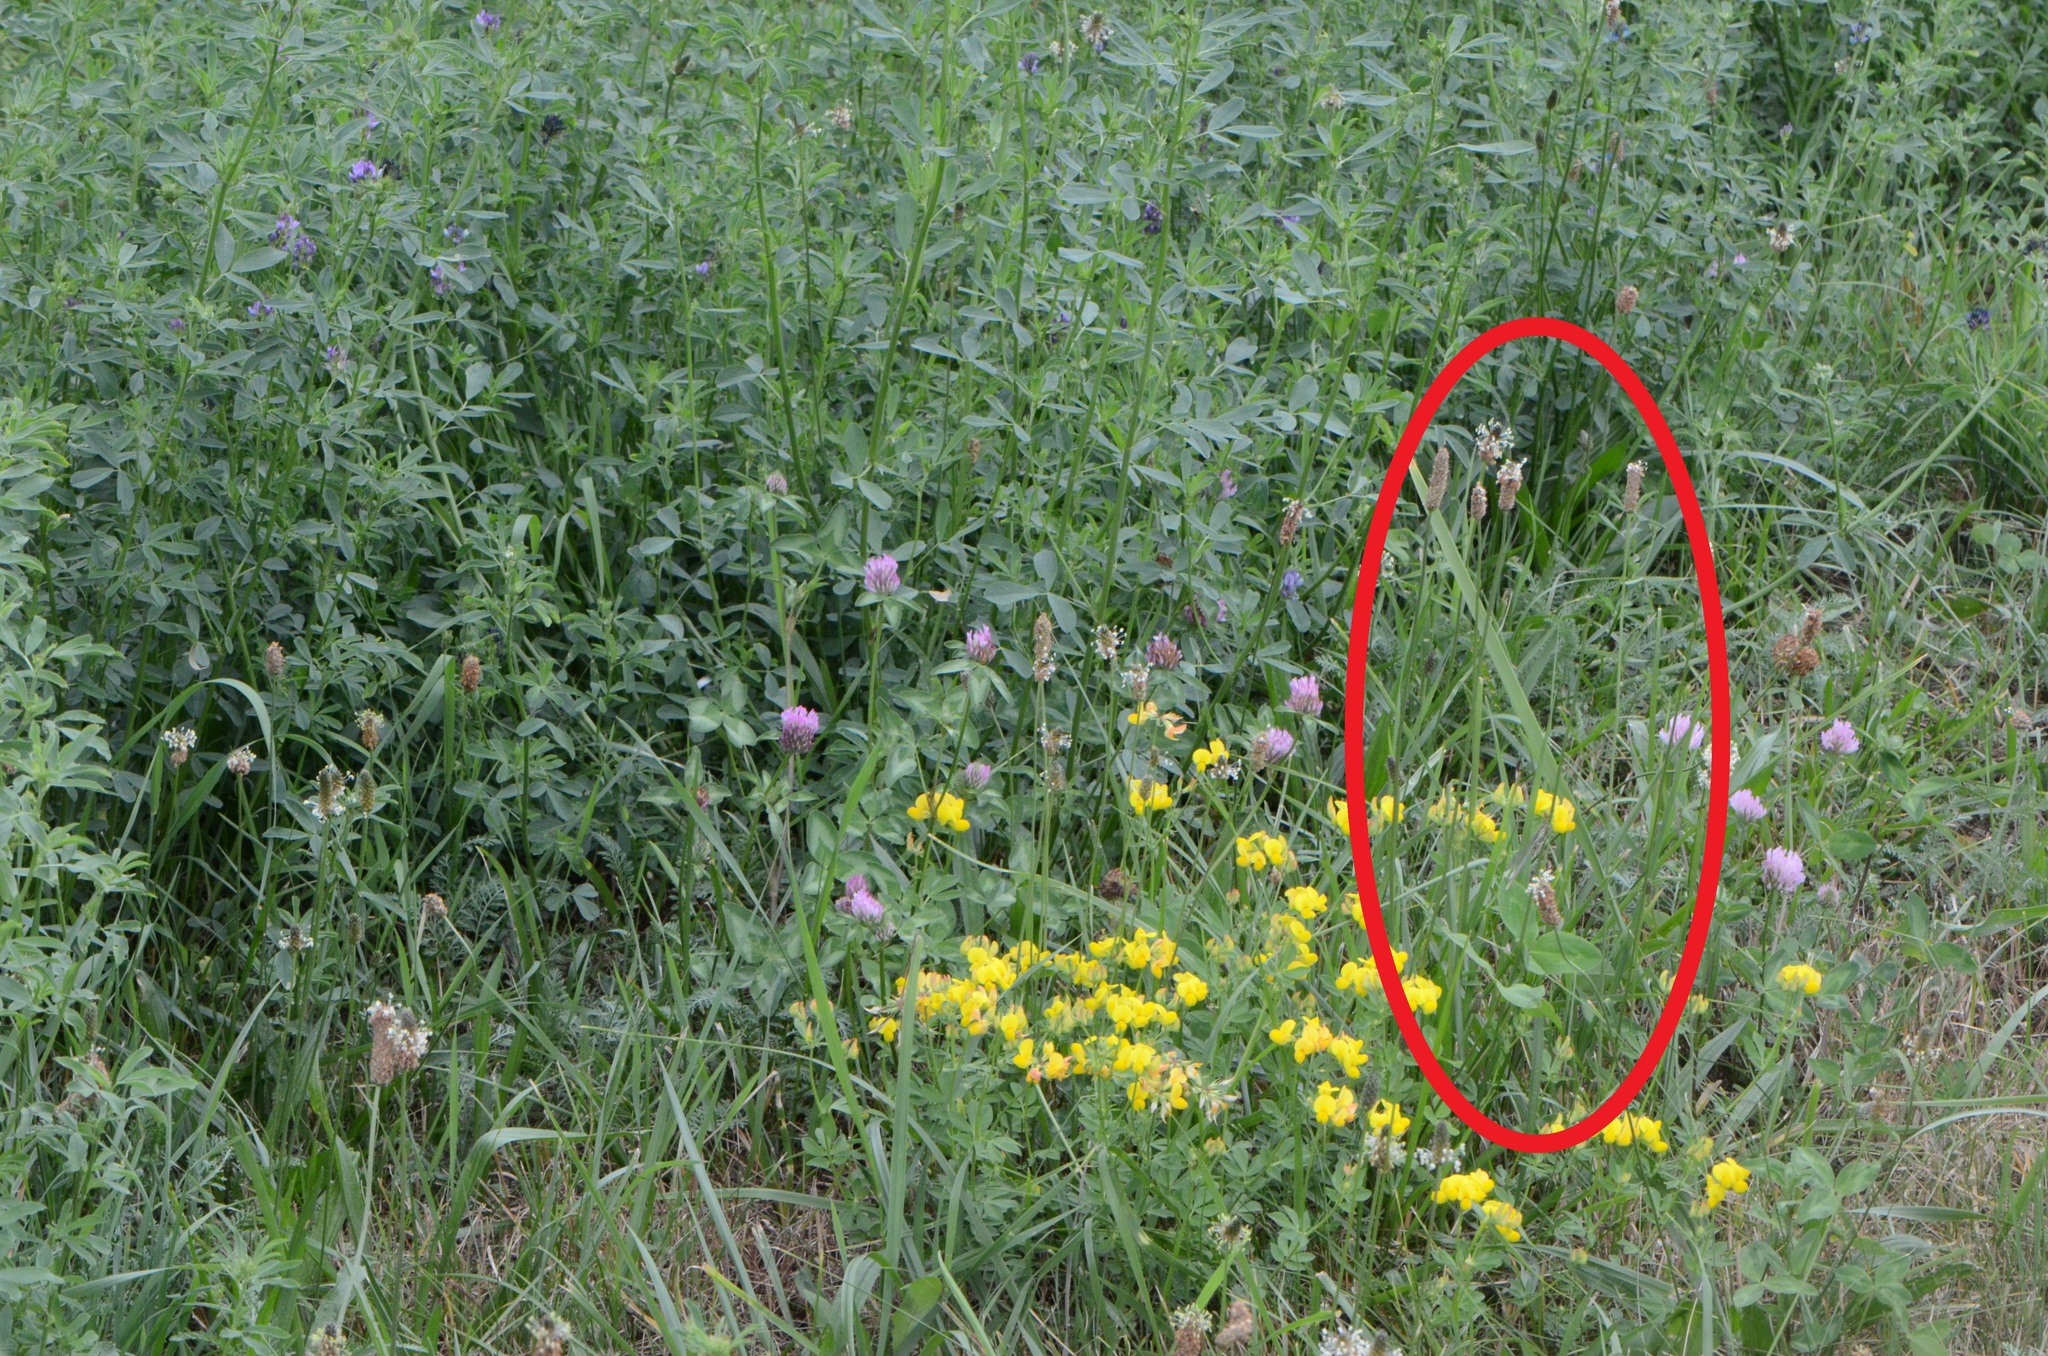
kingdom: Plantae
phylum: Tracheophyta
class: Magnoliopsida
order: Lamiales
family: Plantaginaceae
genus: Plantago
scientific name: Plantago lanceolata
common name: Ribwort plantain
